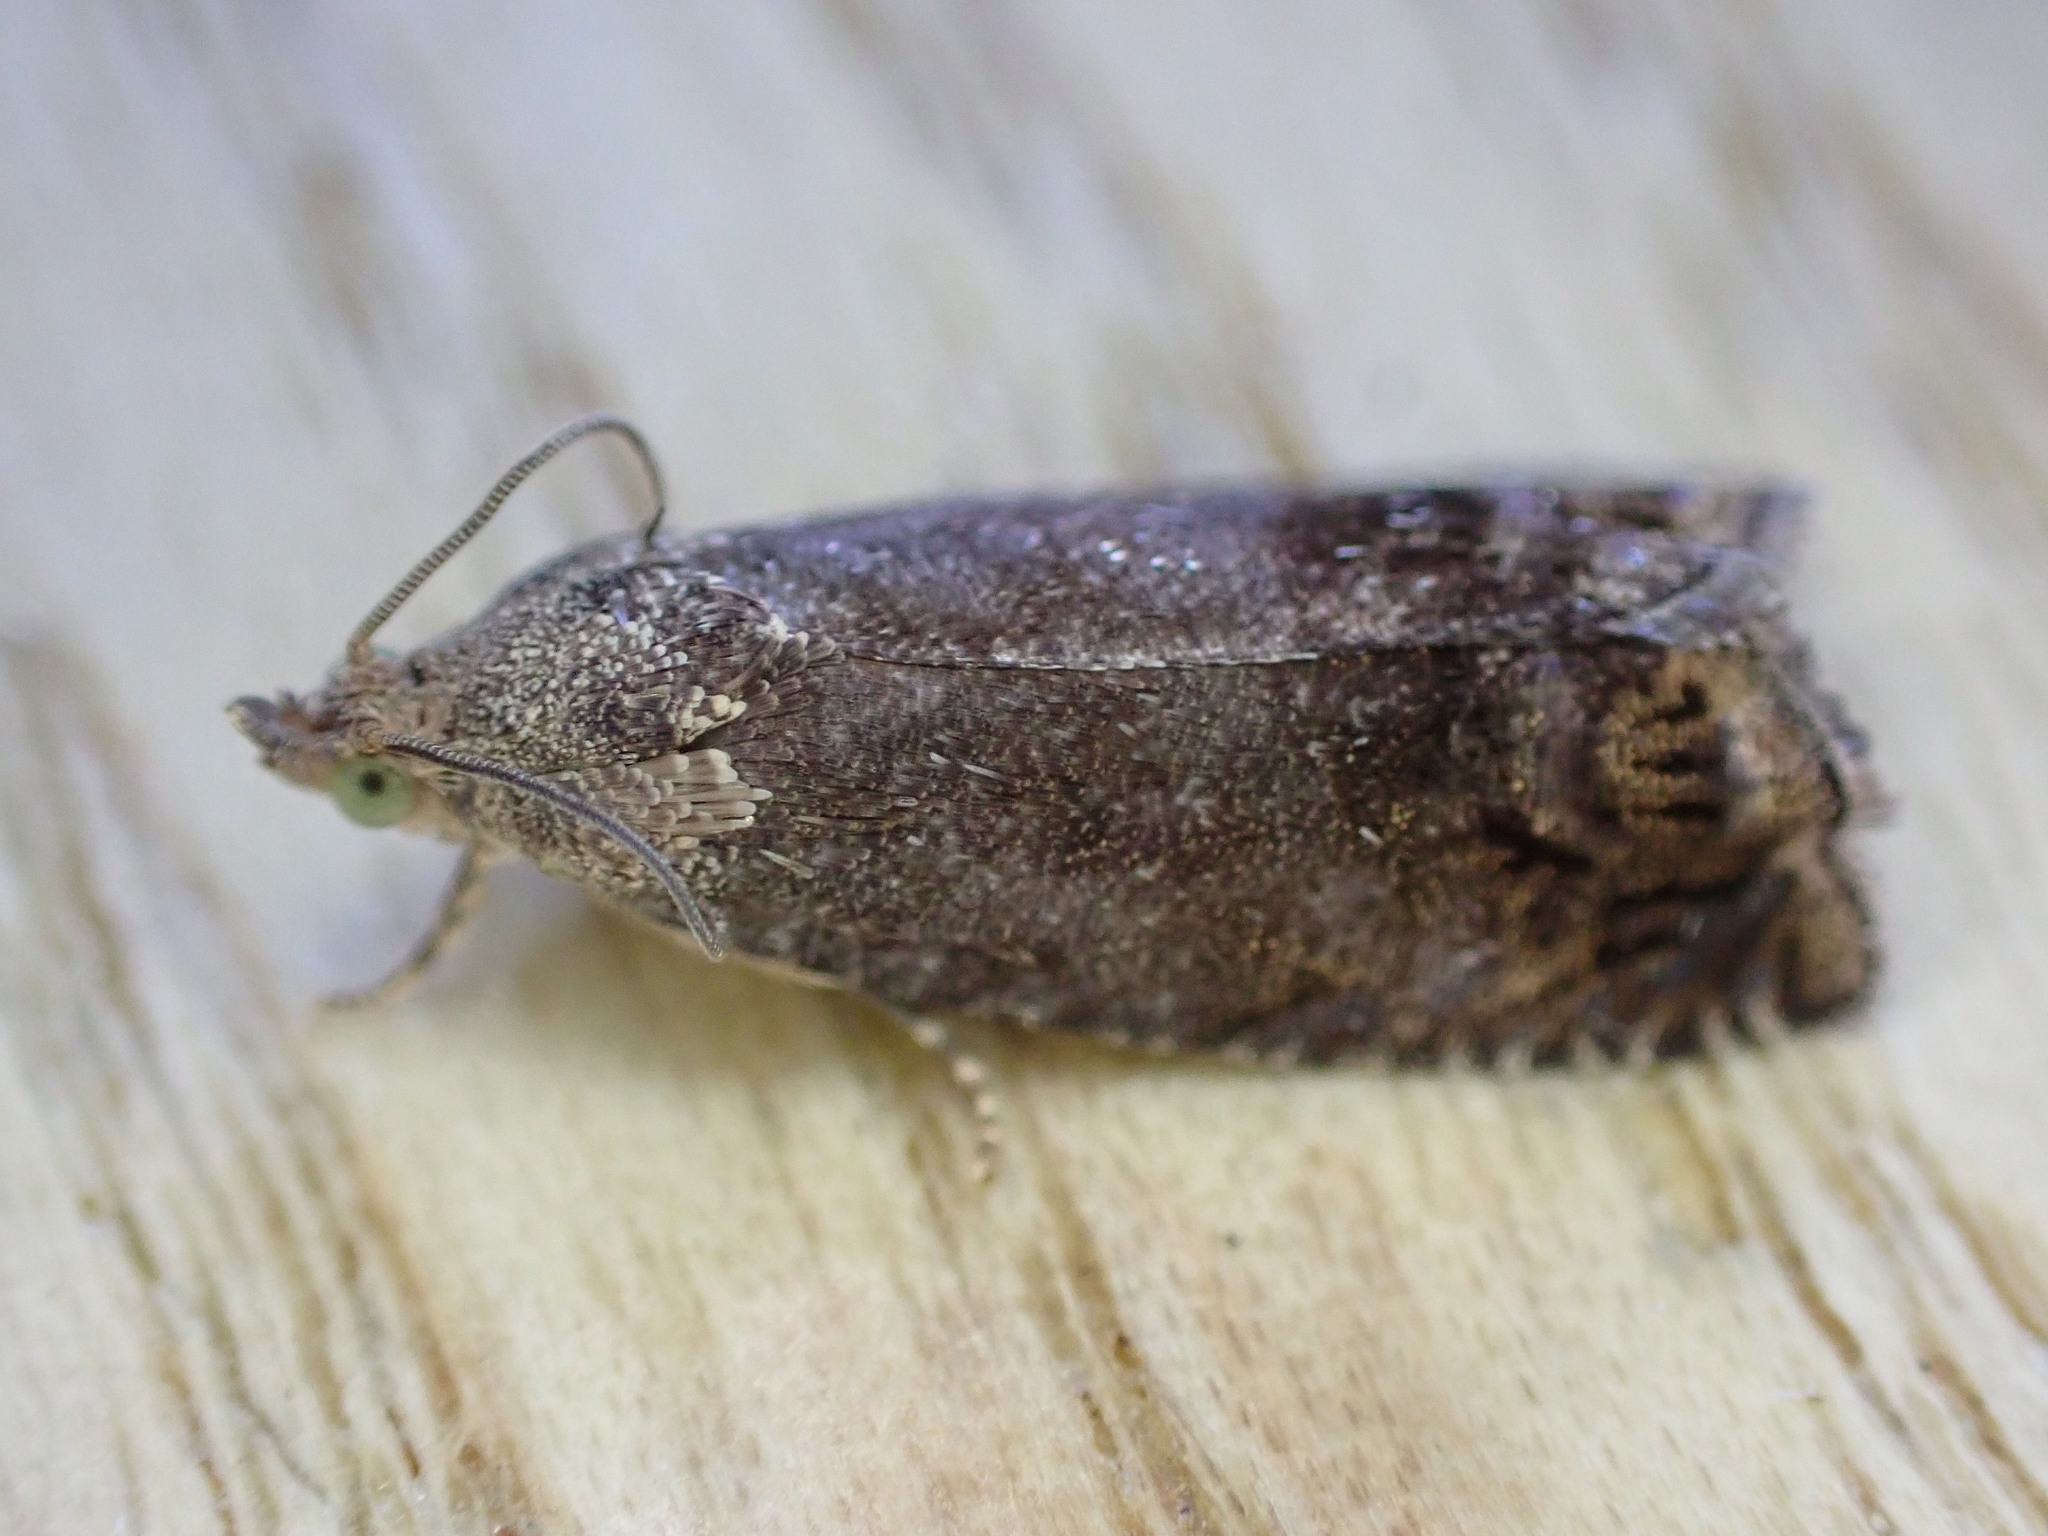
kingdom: Animalia
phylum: Arthropoda
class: Insecta
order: Lepidoptera
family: Tortricidae
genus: Cydia
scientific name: Cydia splendana
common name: De: kastanienwickler, eichenwickler es: oruga de la castaña fr: carpocapse des châtaignes it: cidia o tortrice tardiva delle castagne pt: bichado das castanhas gb: acorn moth, chestnut fruit tortrix
